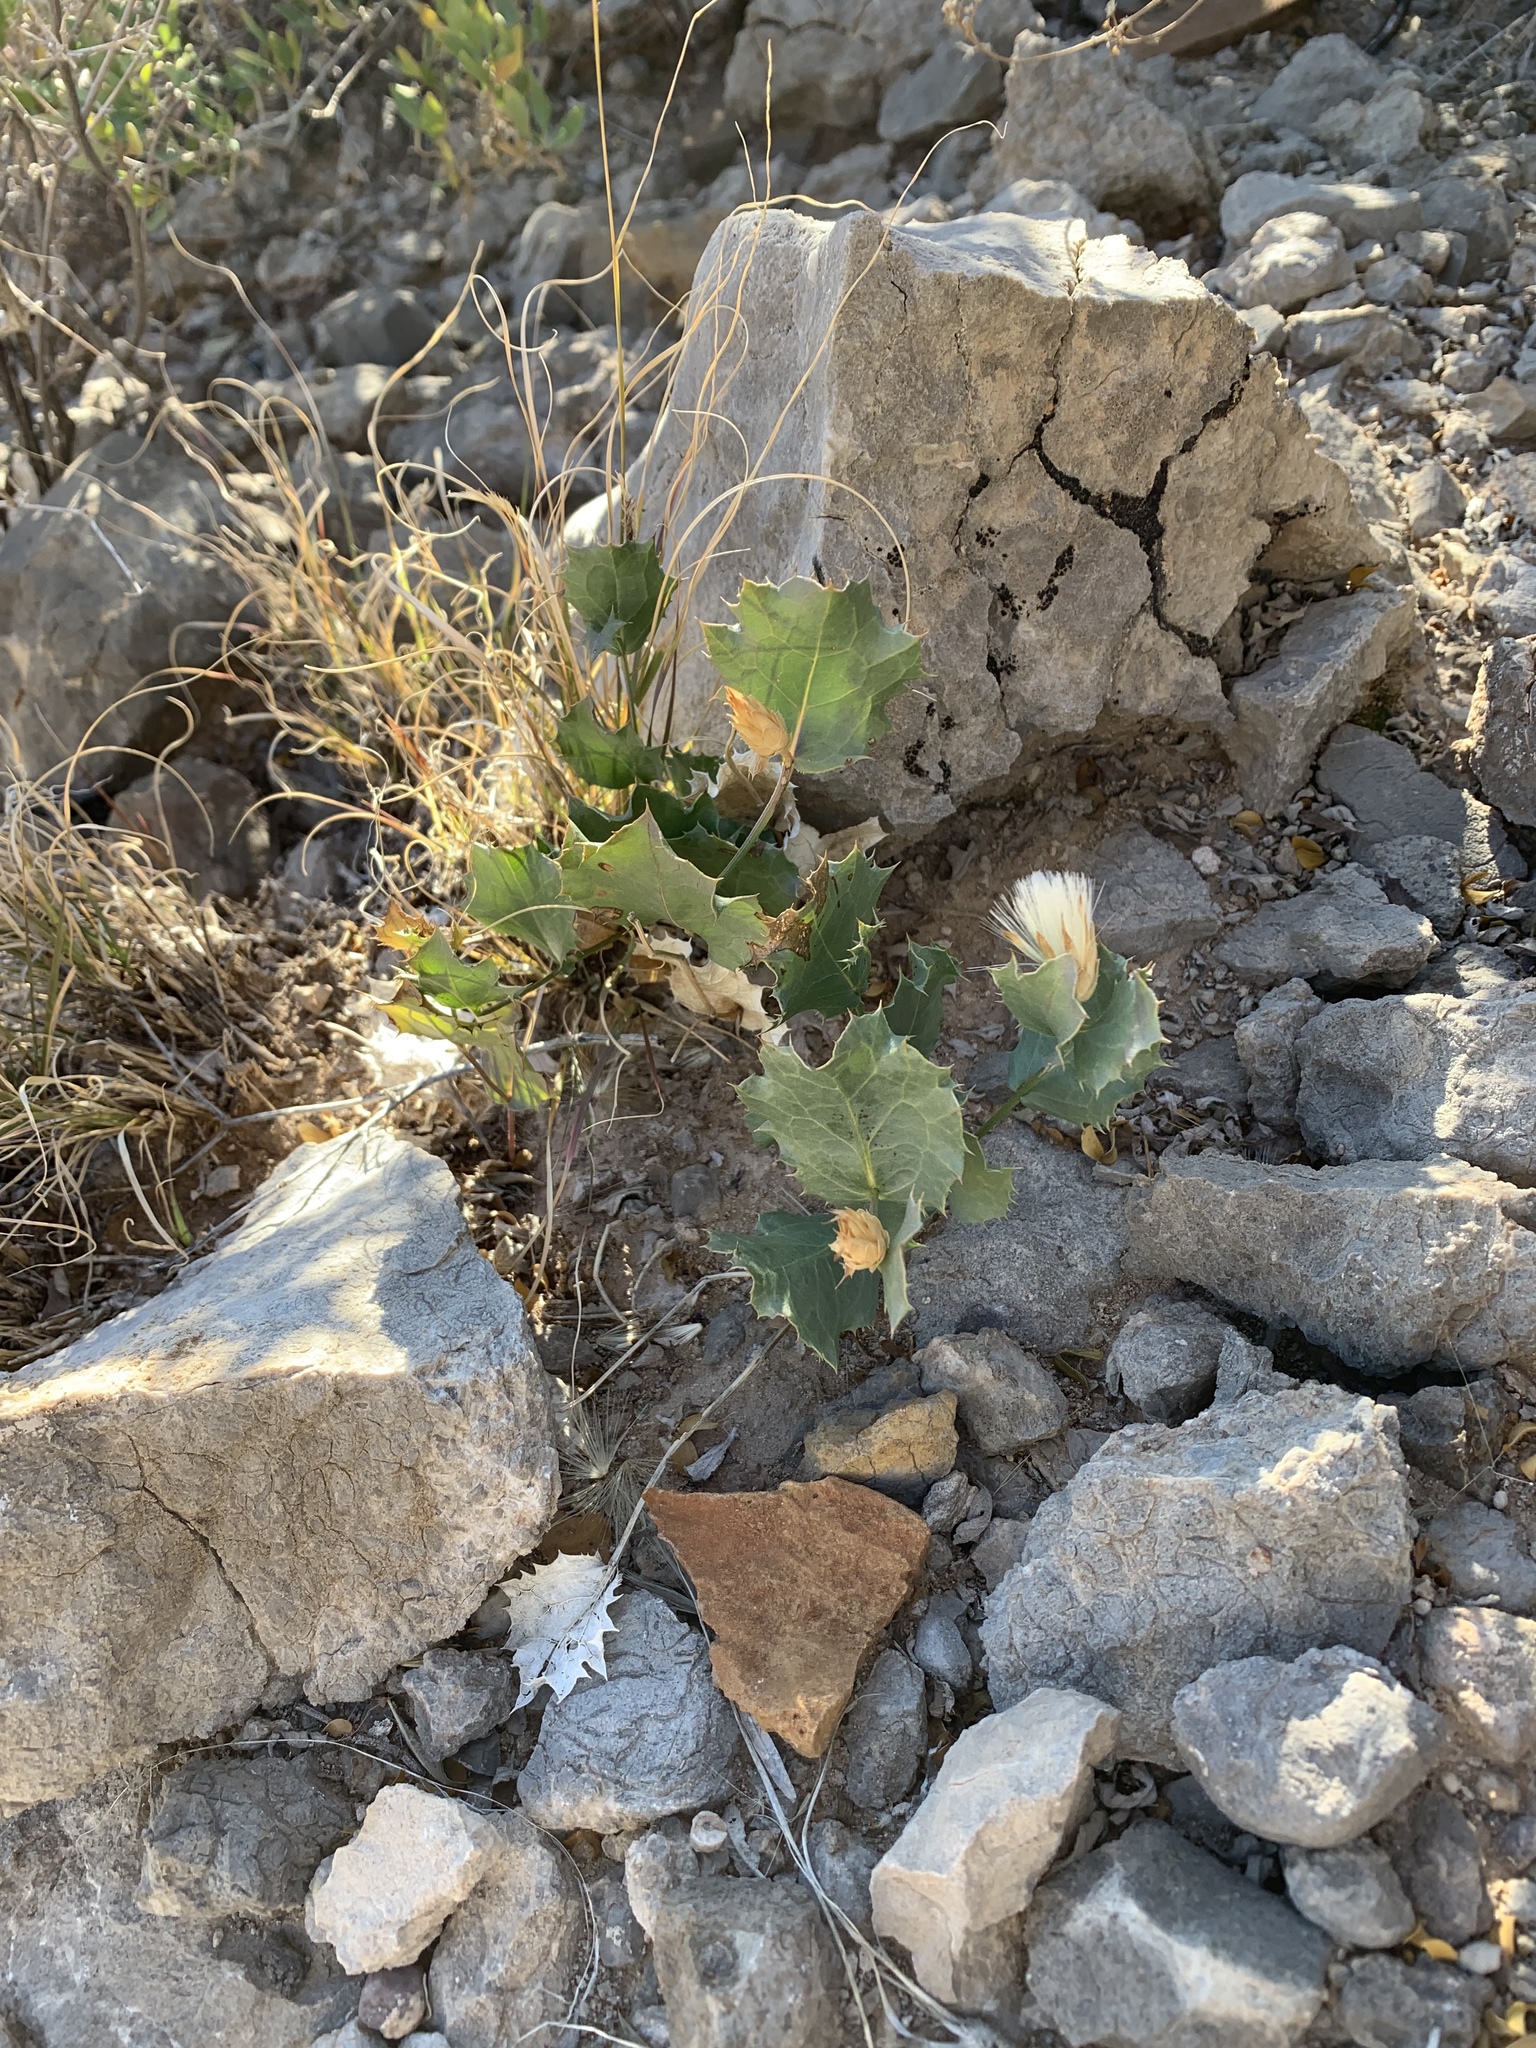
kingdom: Plantae
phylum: Tracheophyta
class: Magnoliopsida
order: Asterales
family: Asteraceae
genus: Acourtia
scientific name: Acourtia nana
